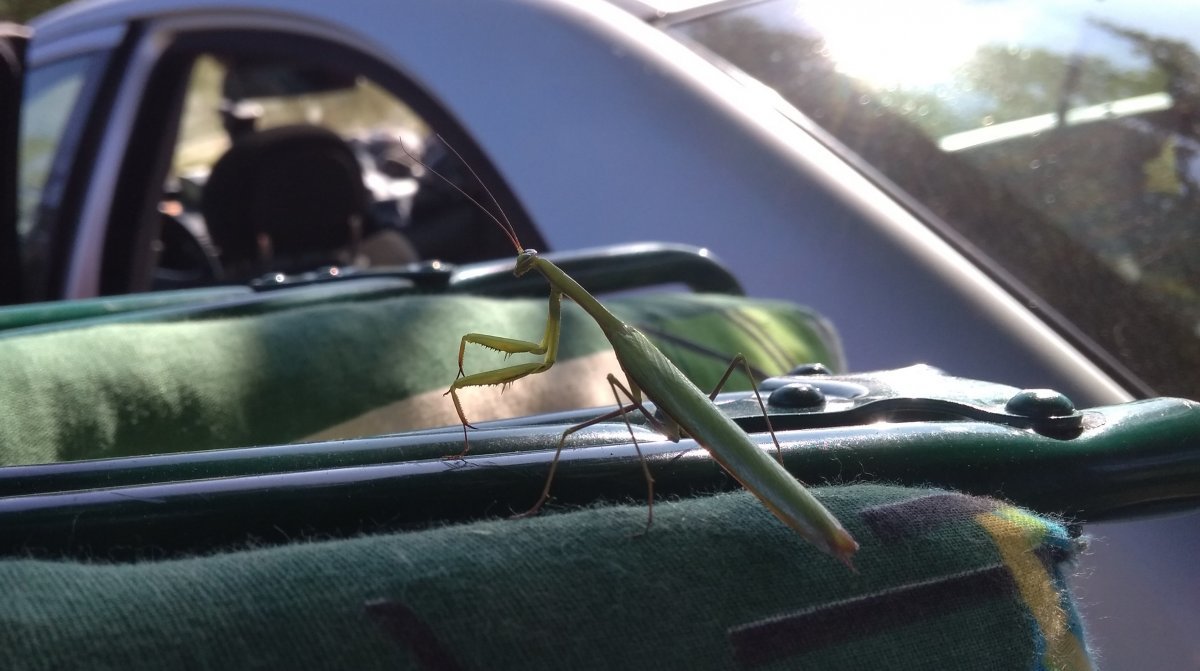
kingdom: Animalia
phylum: Arthropoda
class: Insecta
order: Mantodea
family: Mantidae
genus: Mantis
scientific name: Mantis religiosa
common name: Praying mantis
